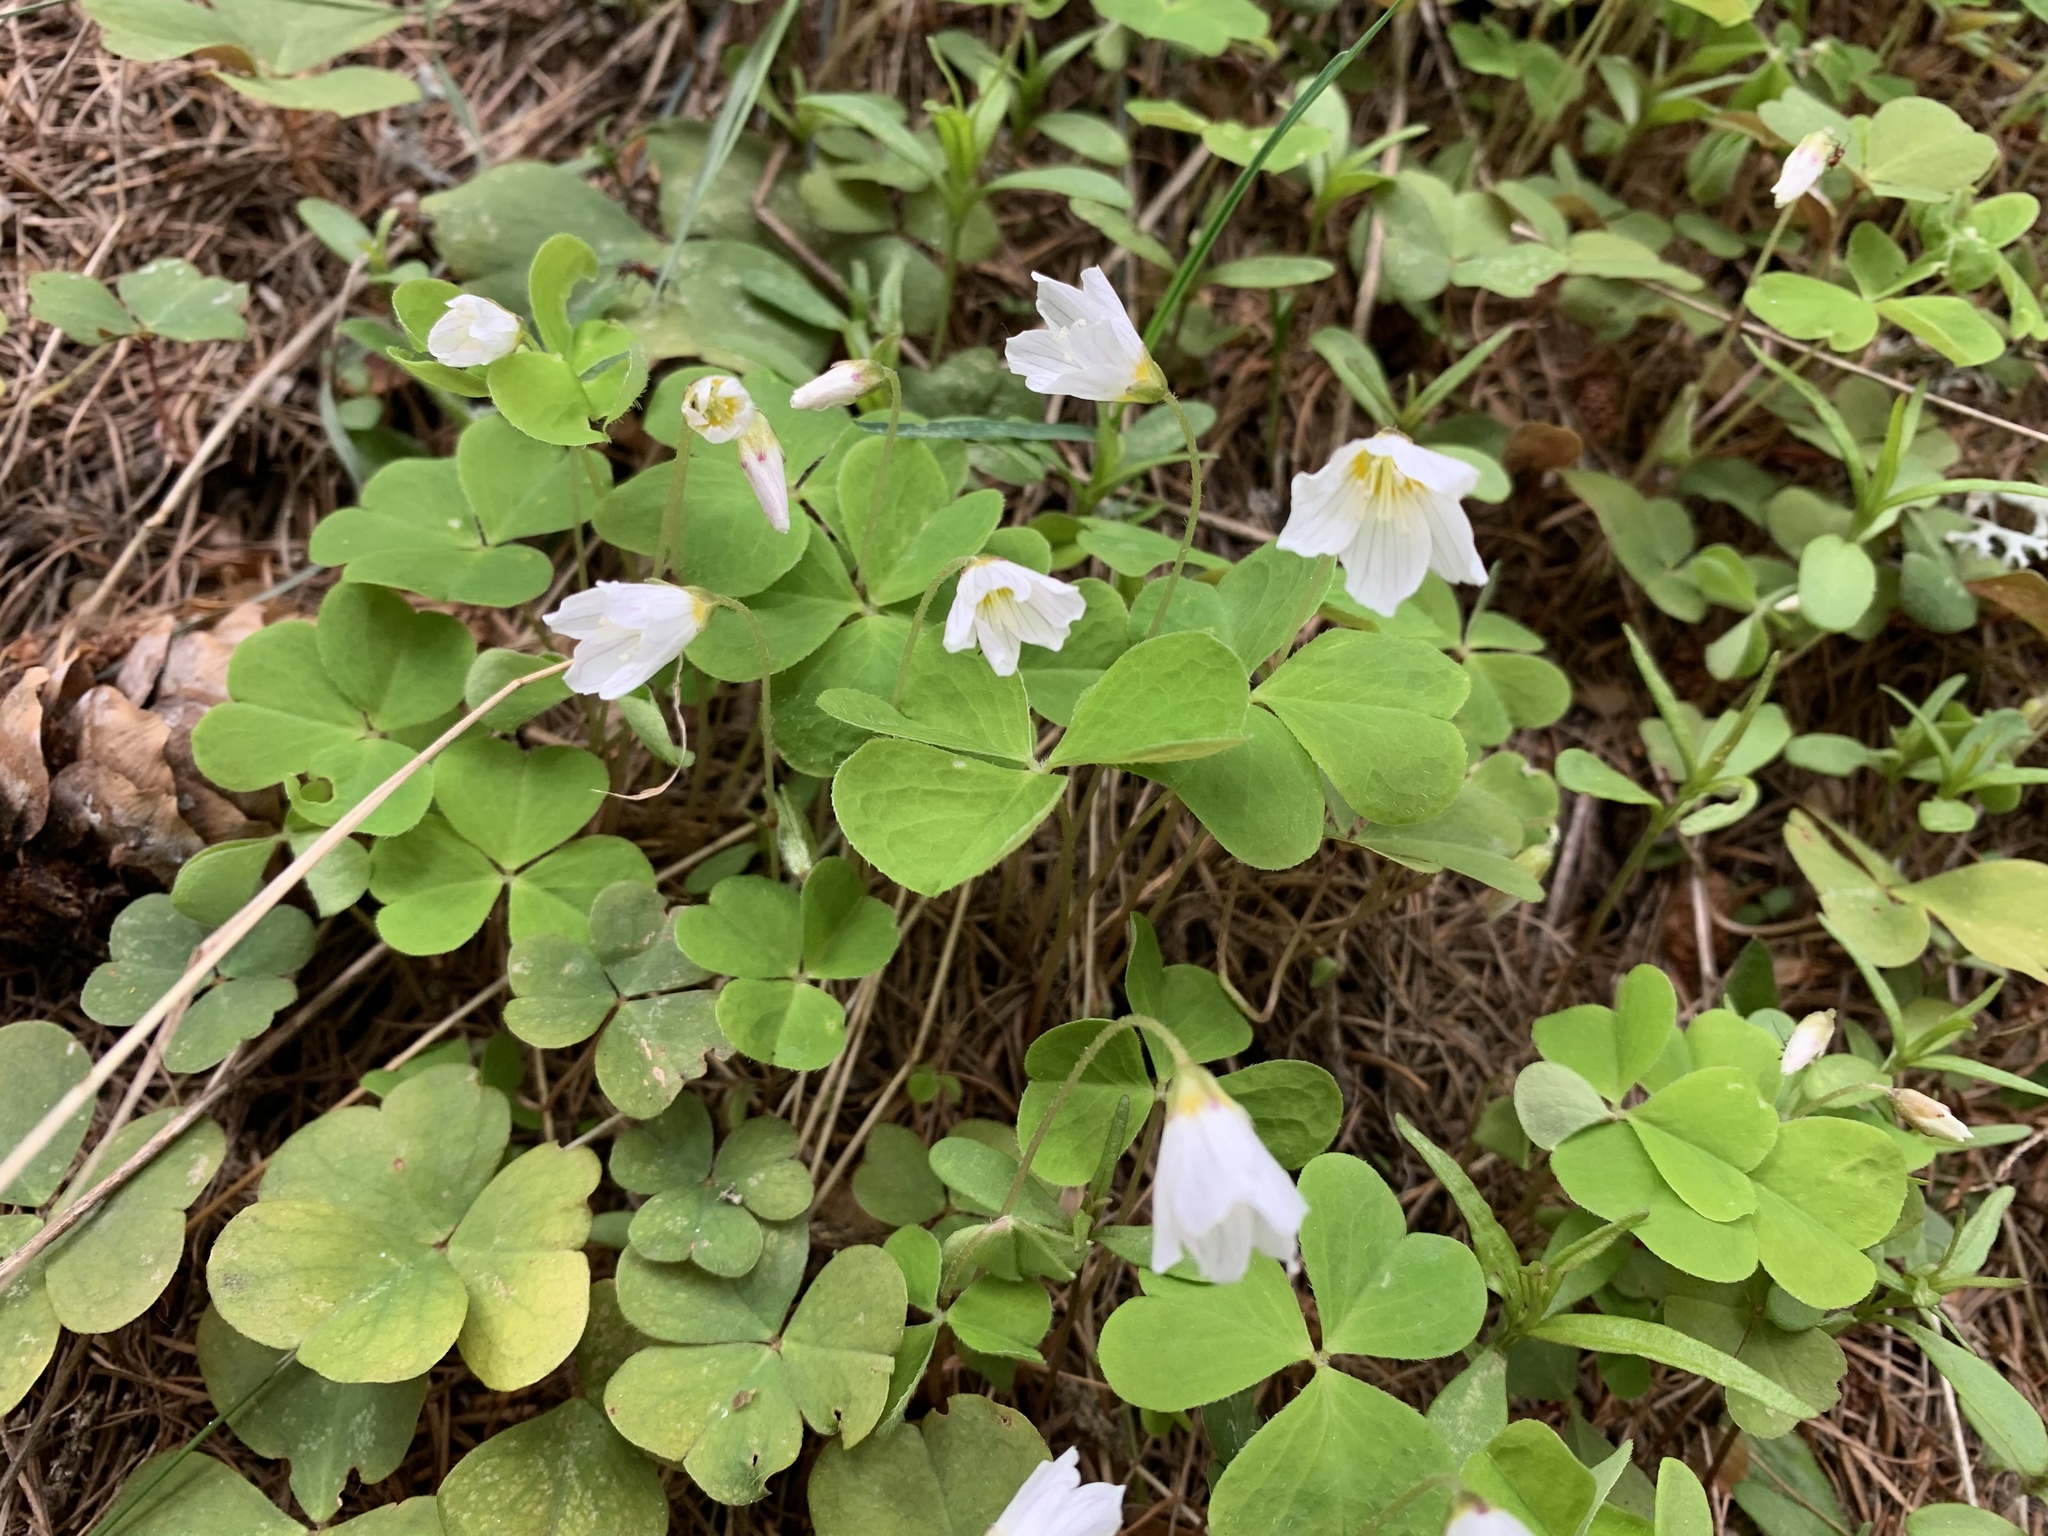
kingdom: Plantae
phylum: Tracheophyta
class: Magnoliopsida
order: Oxalidales
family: Oxalidaceae
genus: Oxalis
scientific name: Oxalis acetosella
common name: Wood-sorrel
